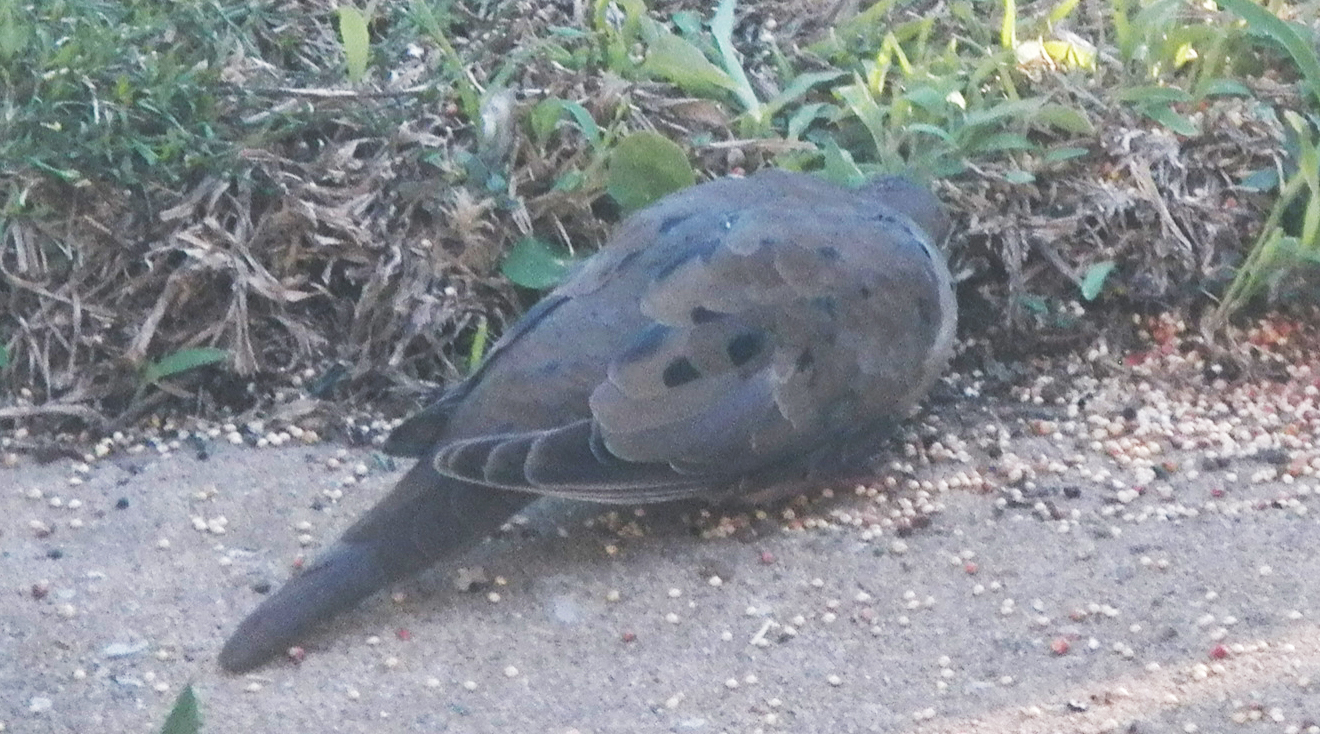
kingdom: Animalia
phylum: Chordata
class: Aves
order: Columbiformes
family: Columbidae
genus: Zenaida
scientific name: Zenaida macroura
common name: Mourning dove
